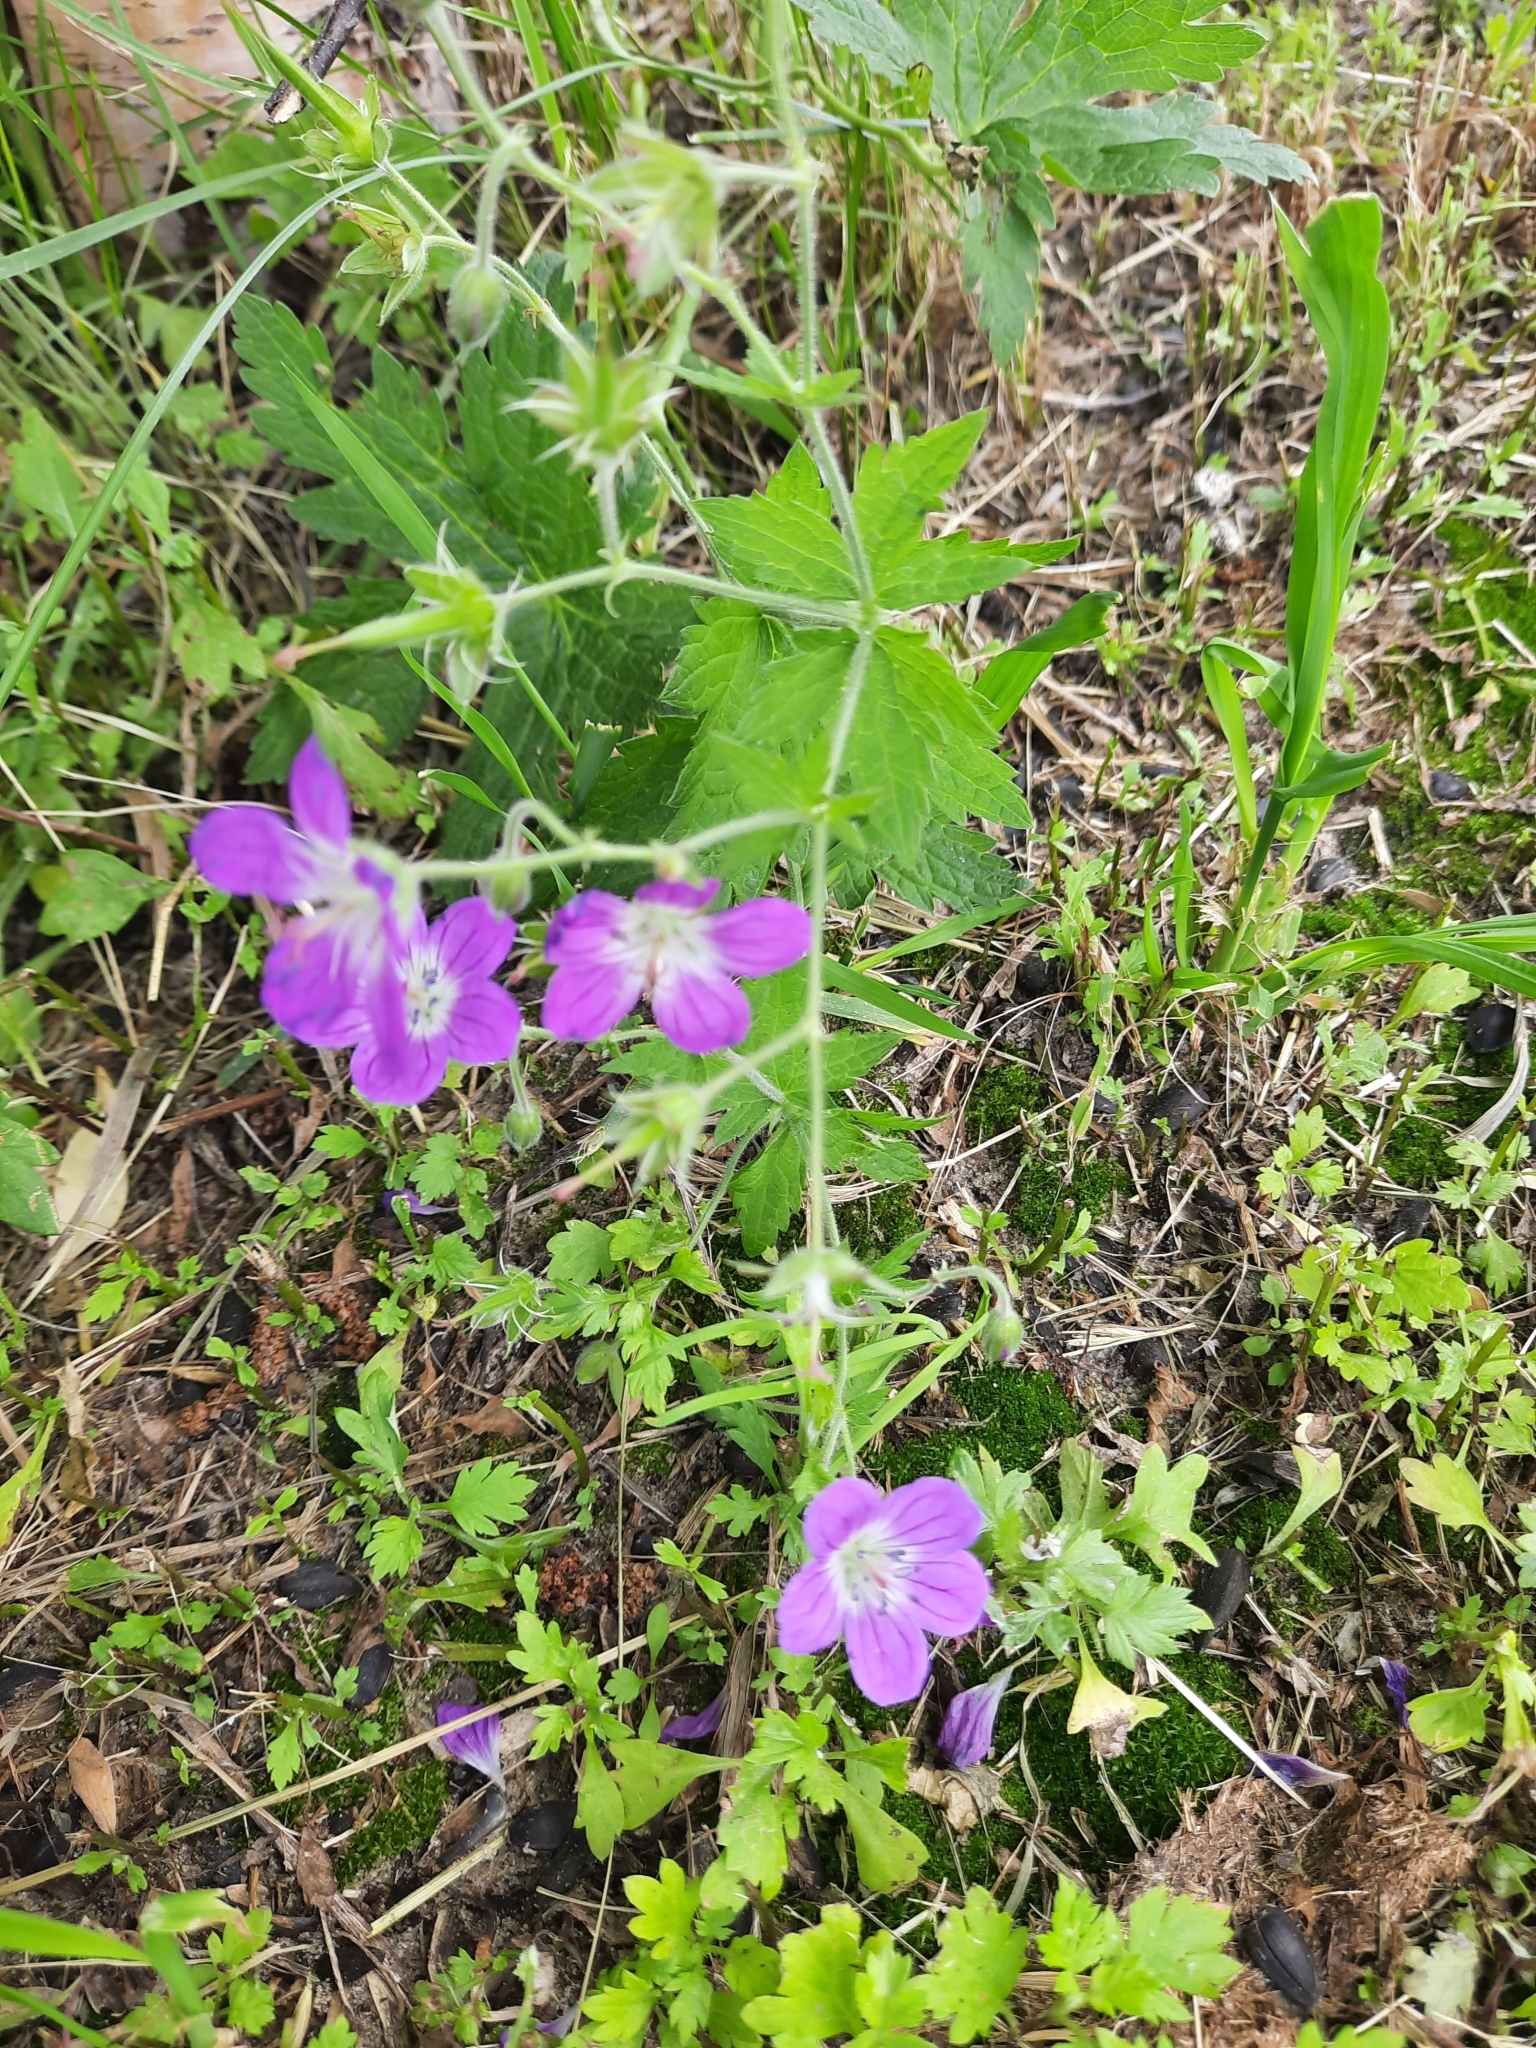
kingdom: Plantae
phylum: Tracheophyta
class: Magnoliopsida
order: Geraniales
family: Geraniaceae
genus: Geranium
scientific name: Geranium sylvaticum
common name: Wood crane's-bill
